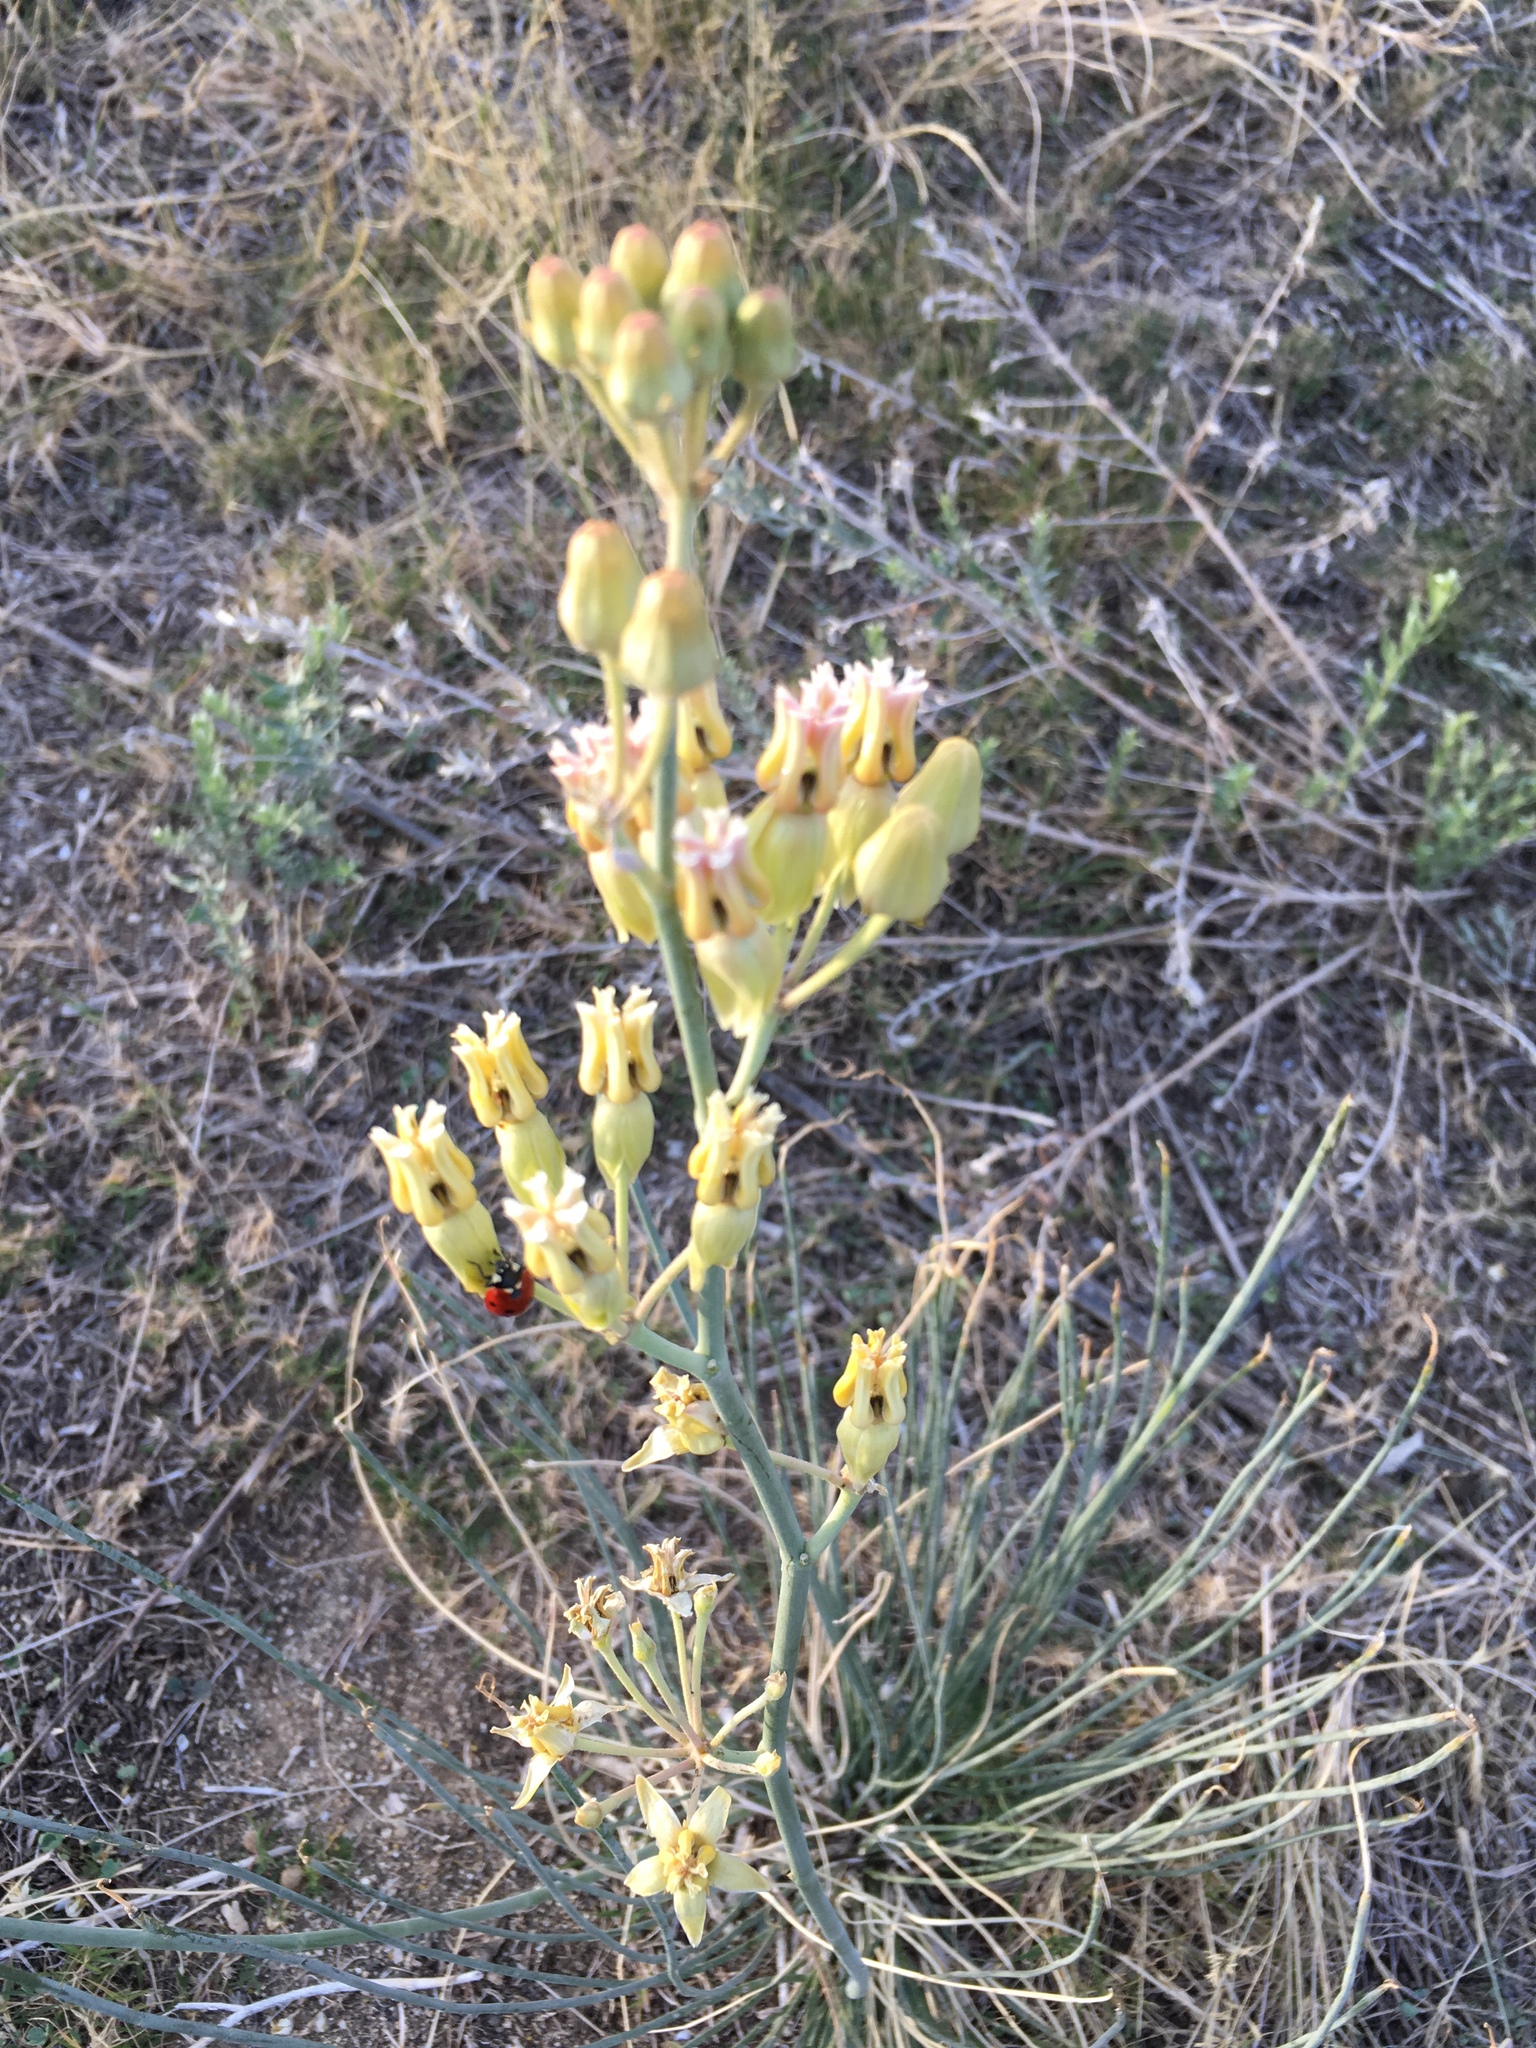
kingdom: Plantae
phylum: Tracheophyta
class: Magnoliopsida
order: Gentianales
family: Apocynaceae
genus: Asclepias
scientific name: Asclepias subulata
